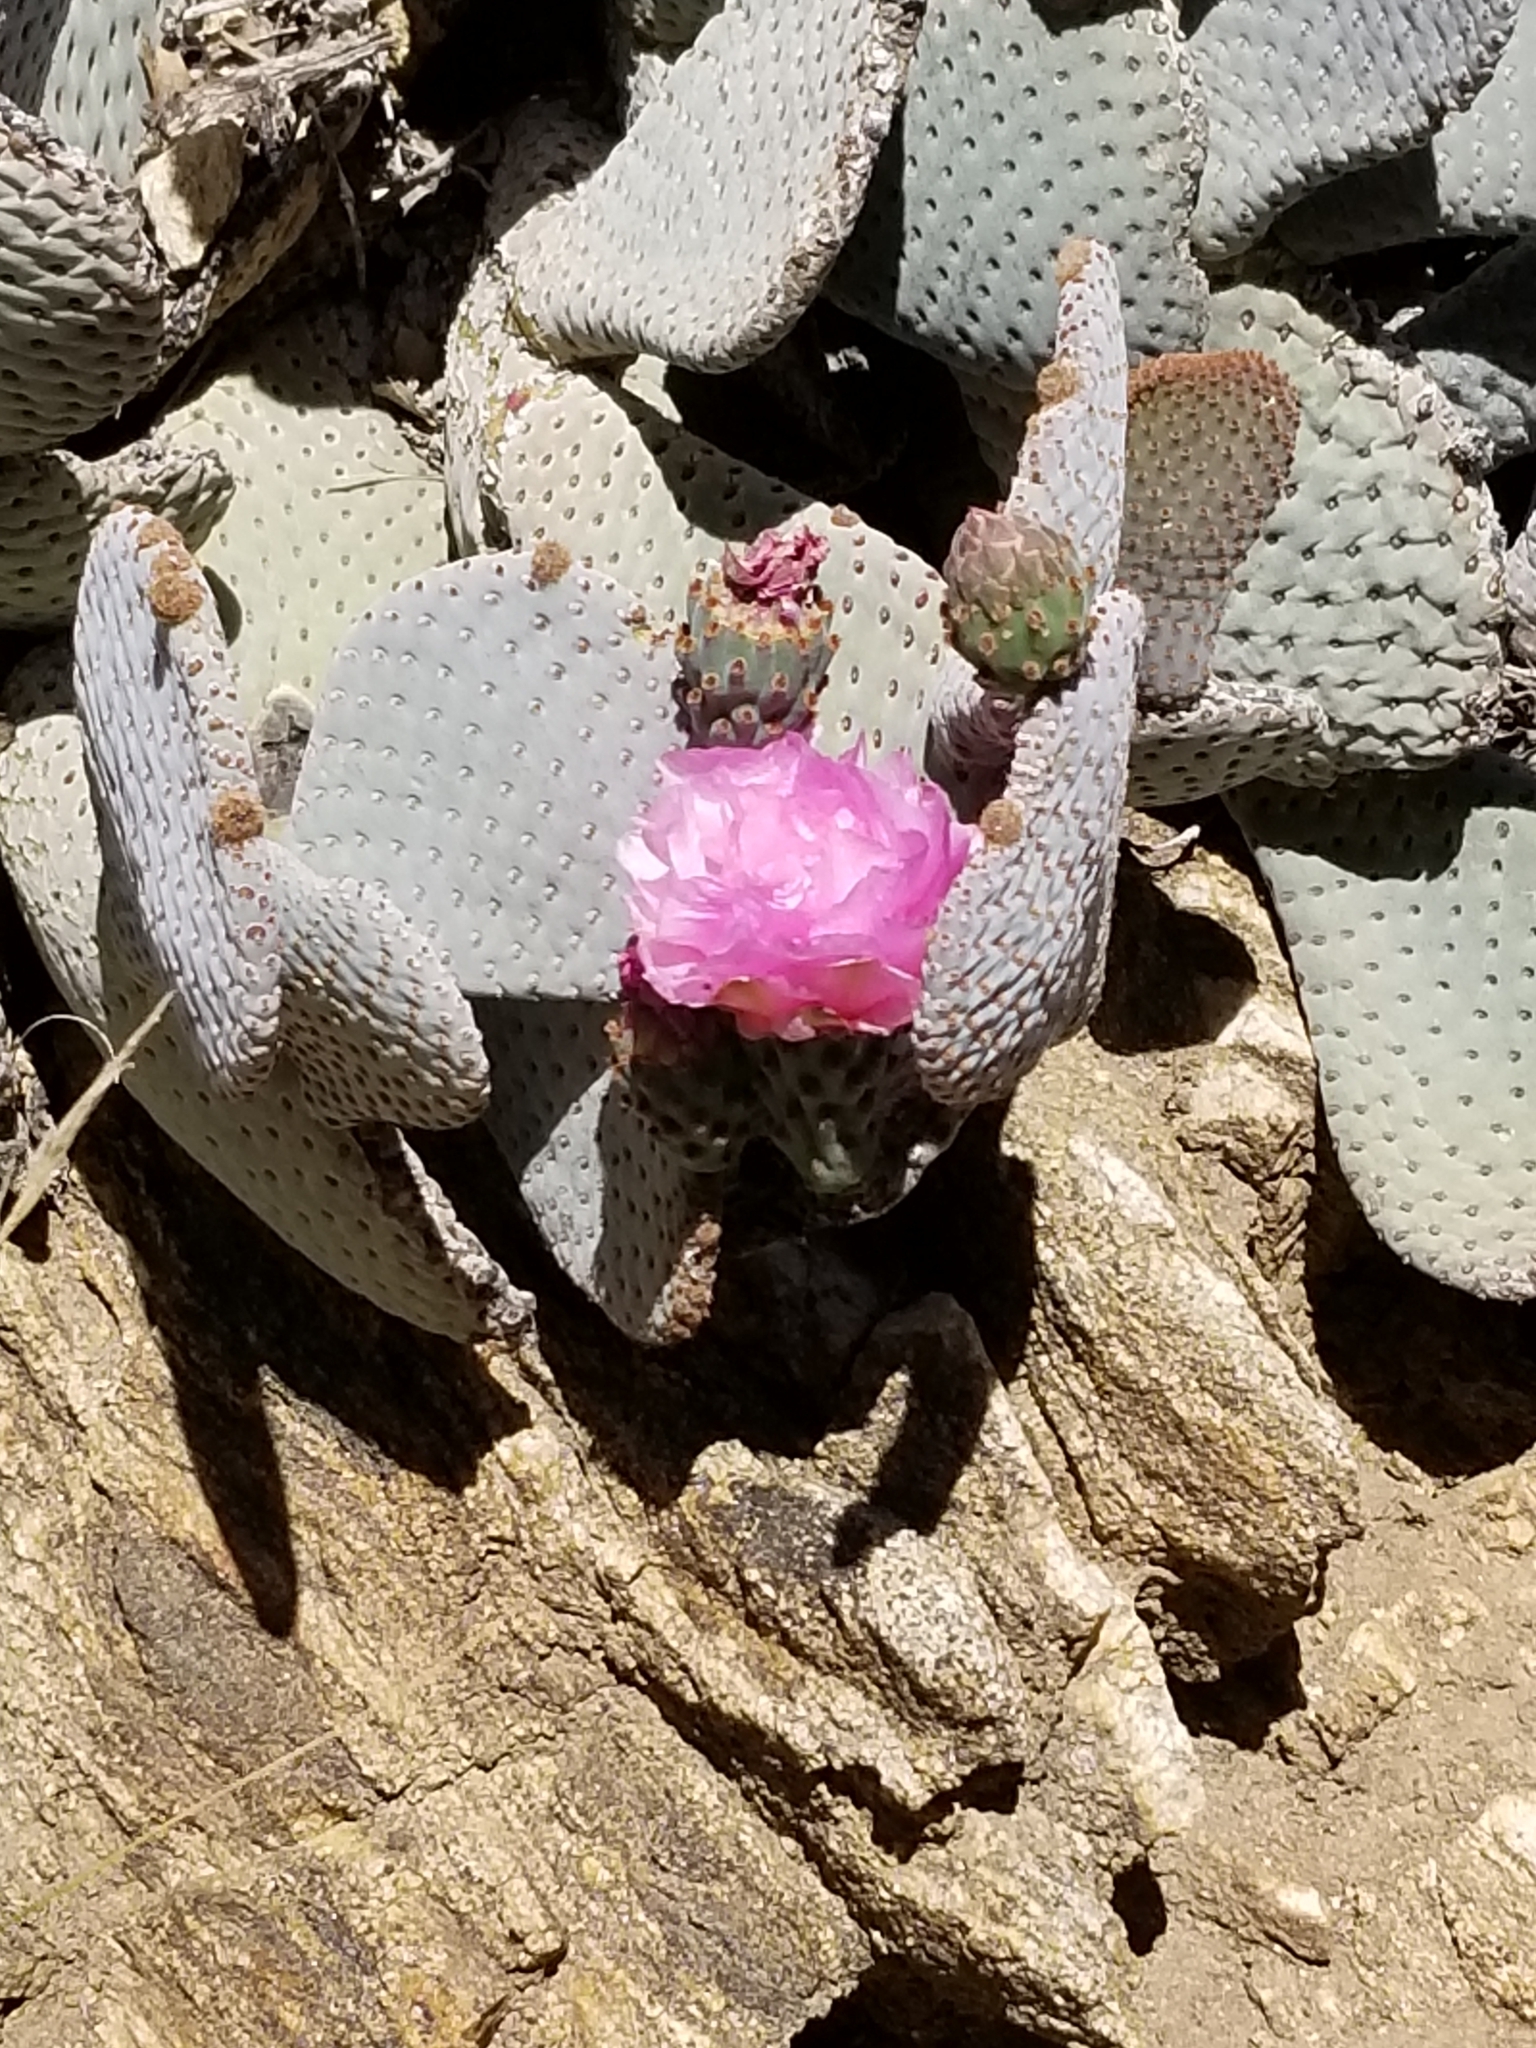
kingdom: Plantae
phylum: Tracheophyta
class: Magnoliopsida
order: Caryophyllales
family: Cactaceae
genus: Opuntia
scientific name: Opuntia basilaris
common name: Beavertail prickly-pear
